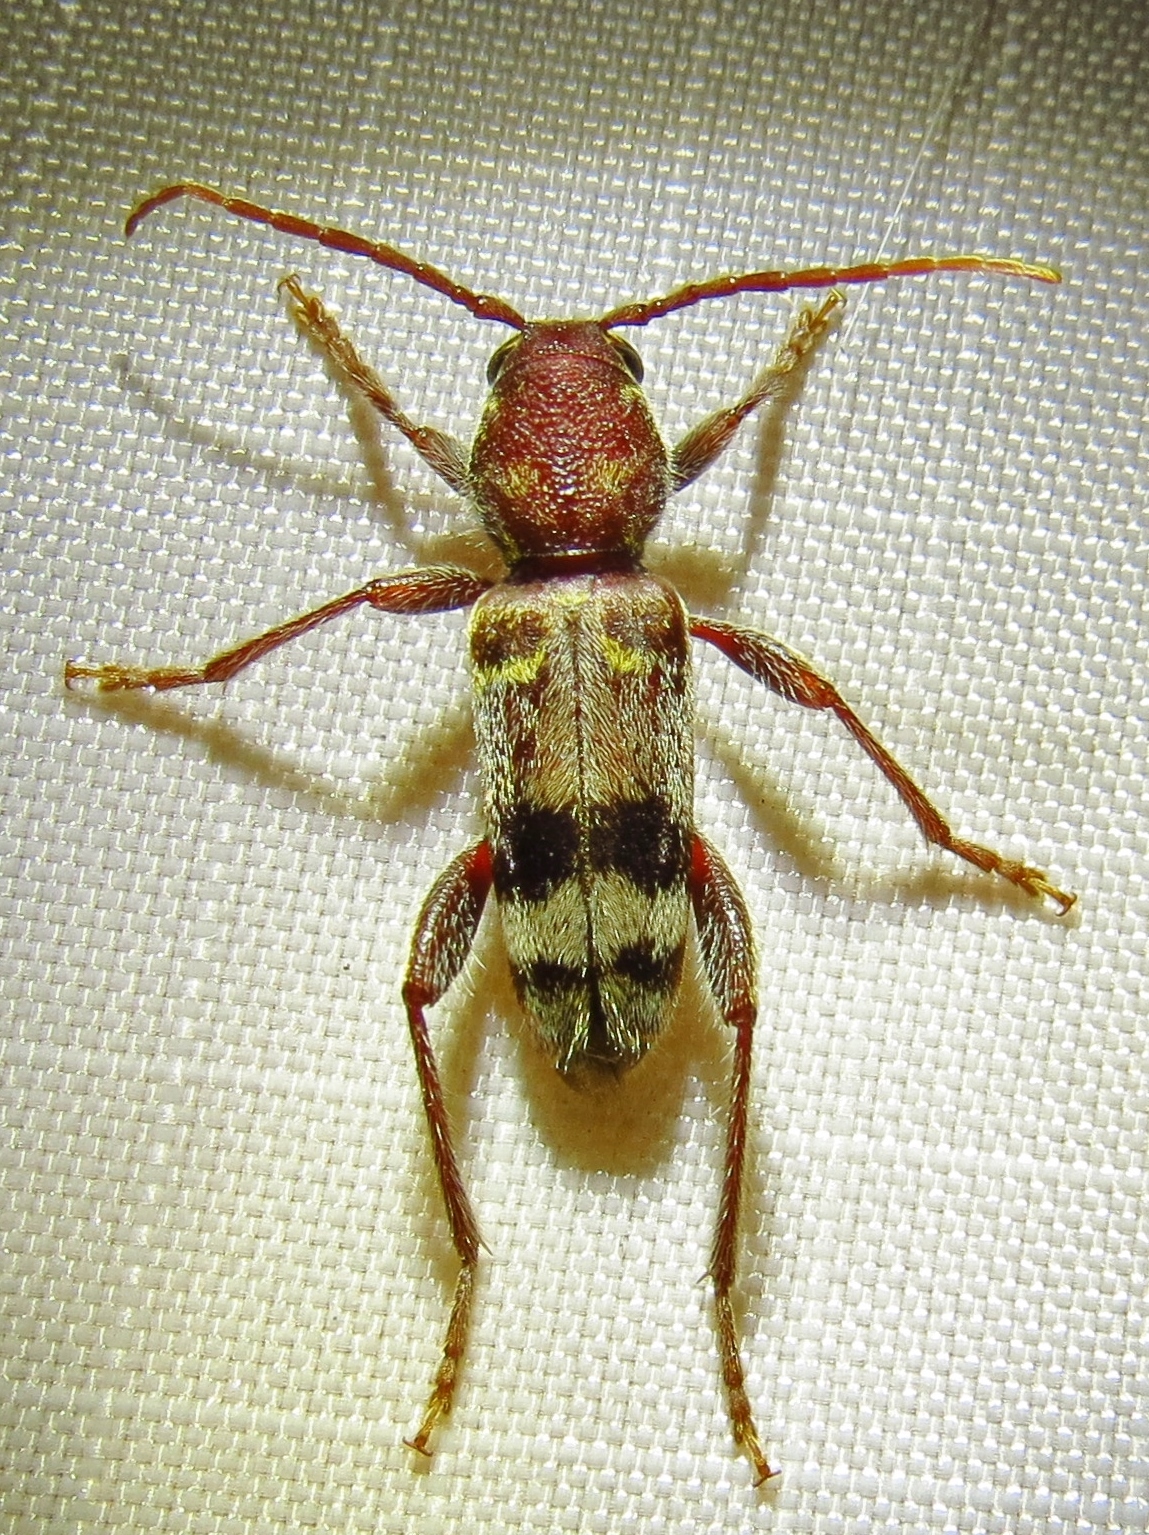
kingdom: Animalia
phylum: Arthropoda
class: Insecta
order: Coleoptera
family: Cerambycidae
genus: Xylotrechus
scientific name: Xylotrechus colonus
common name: Long-horned beetle
